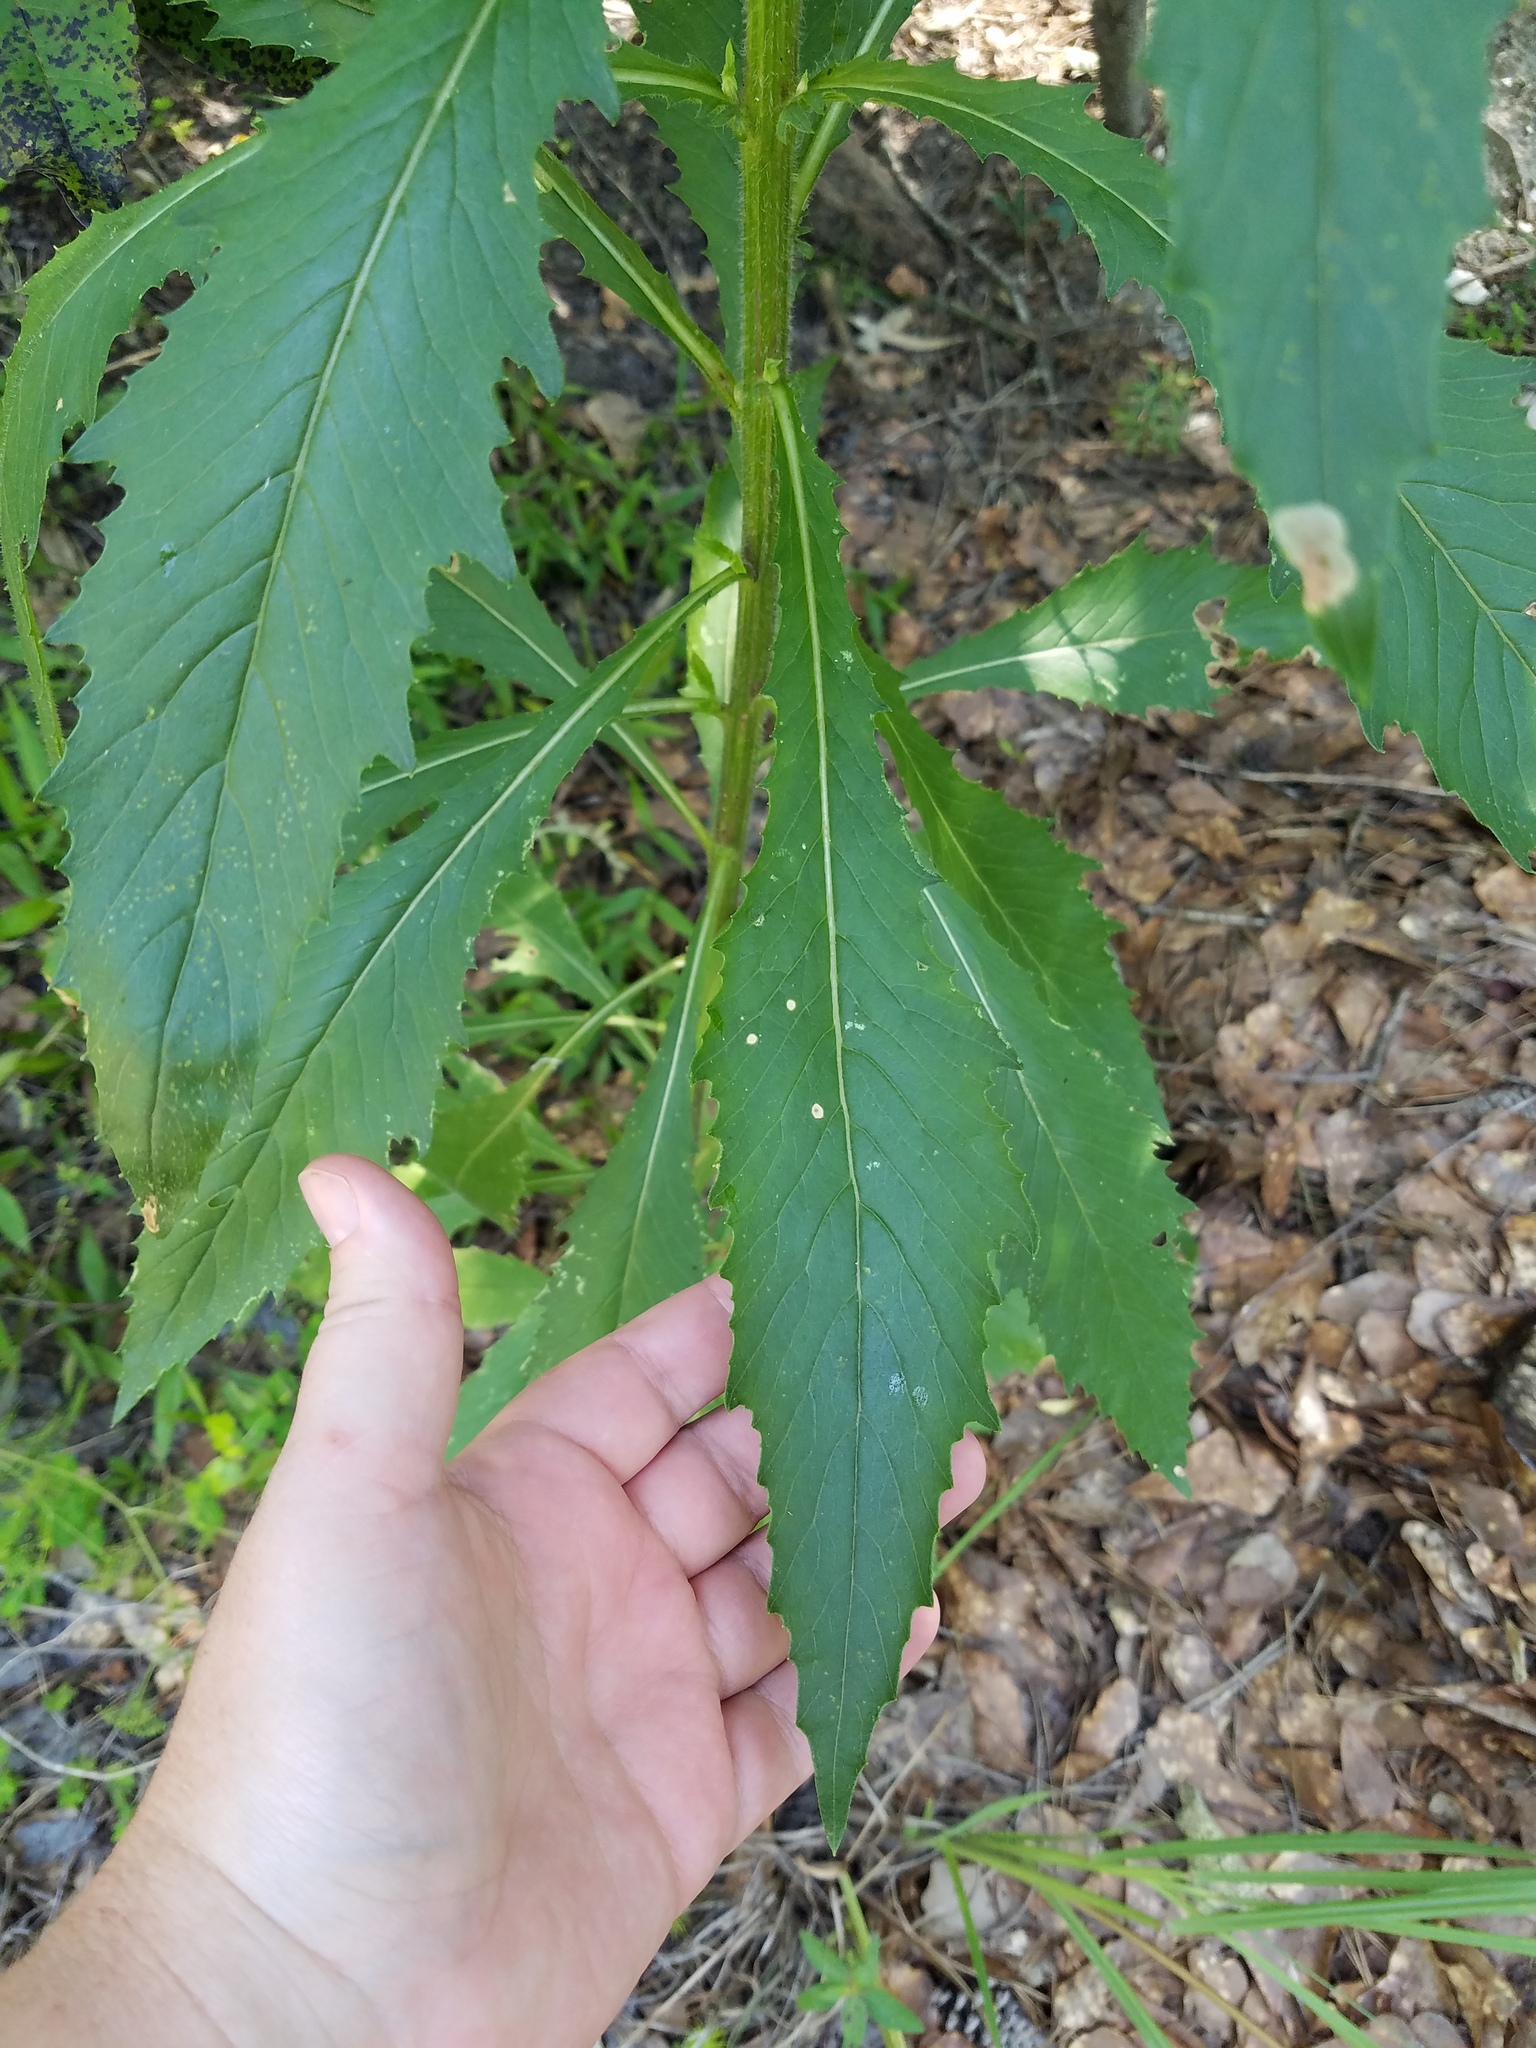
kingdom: Plantae
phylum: Tracheophyta
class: Magnoliopsida
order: Asterales
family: Asteraceae
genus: Erechtites
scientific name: Erechtites hieraciifolius
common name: American burnweed
